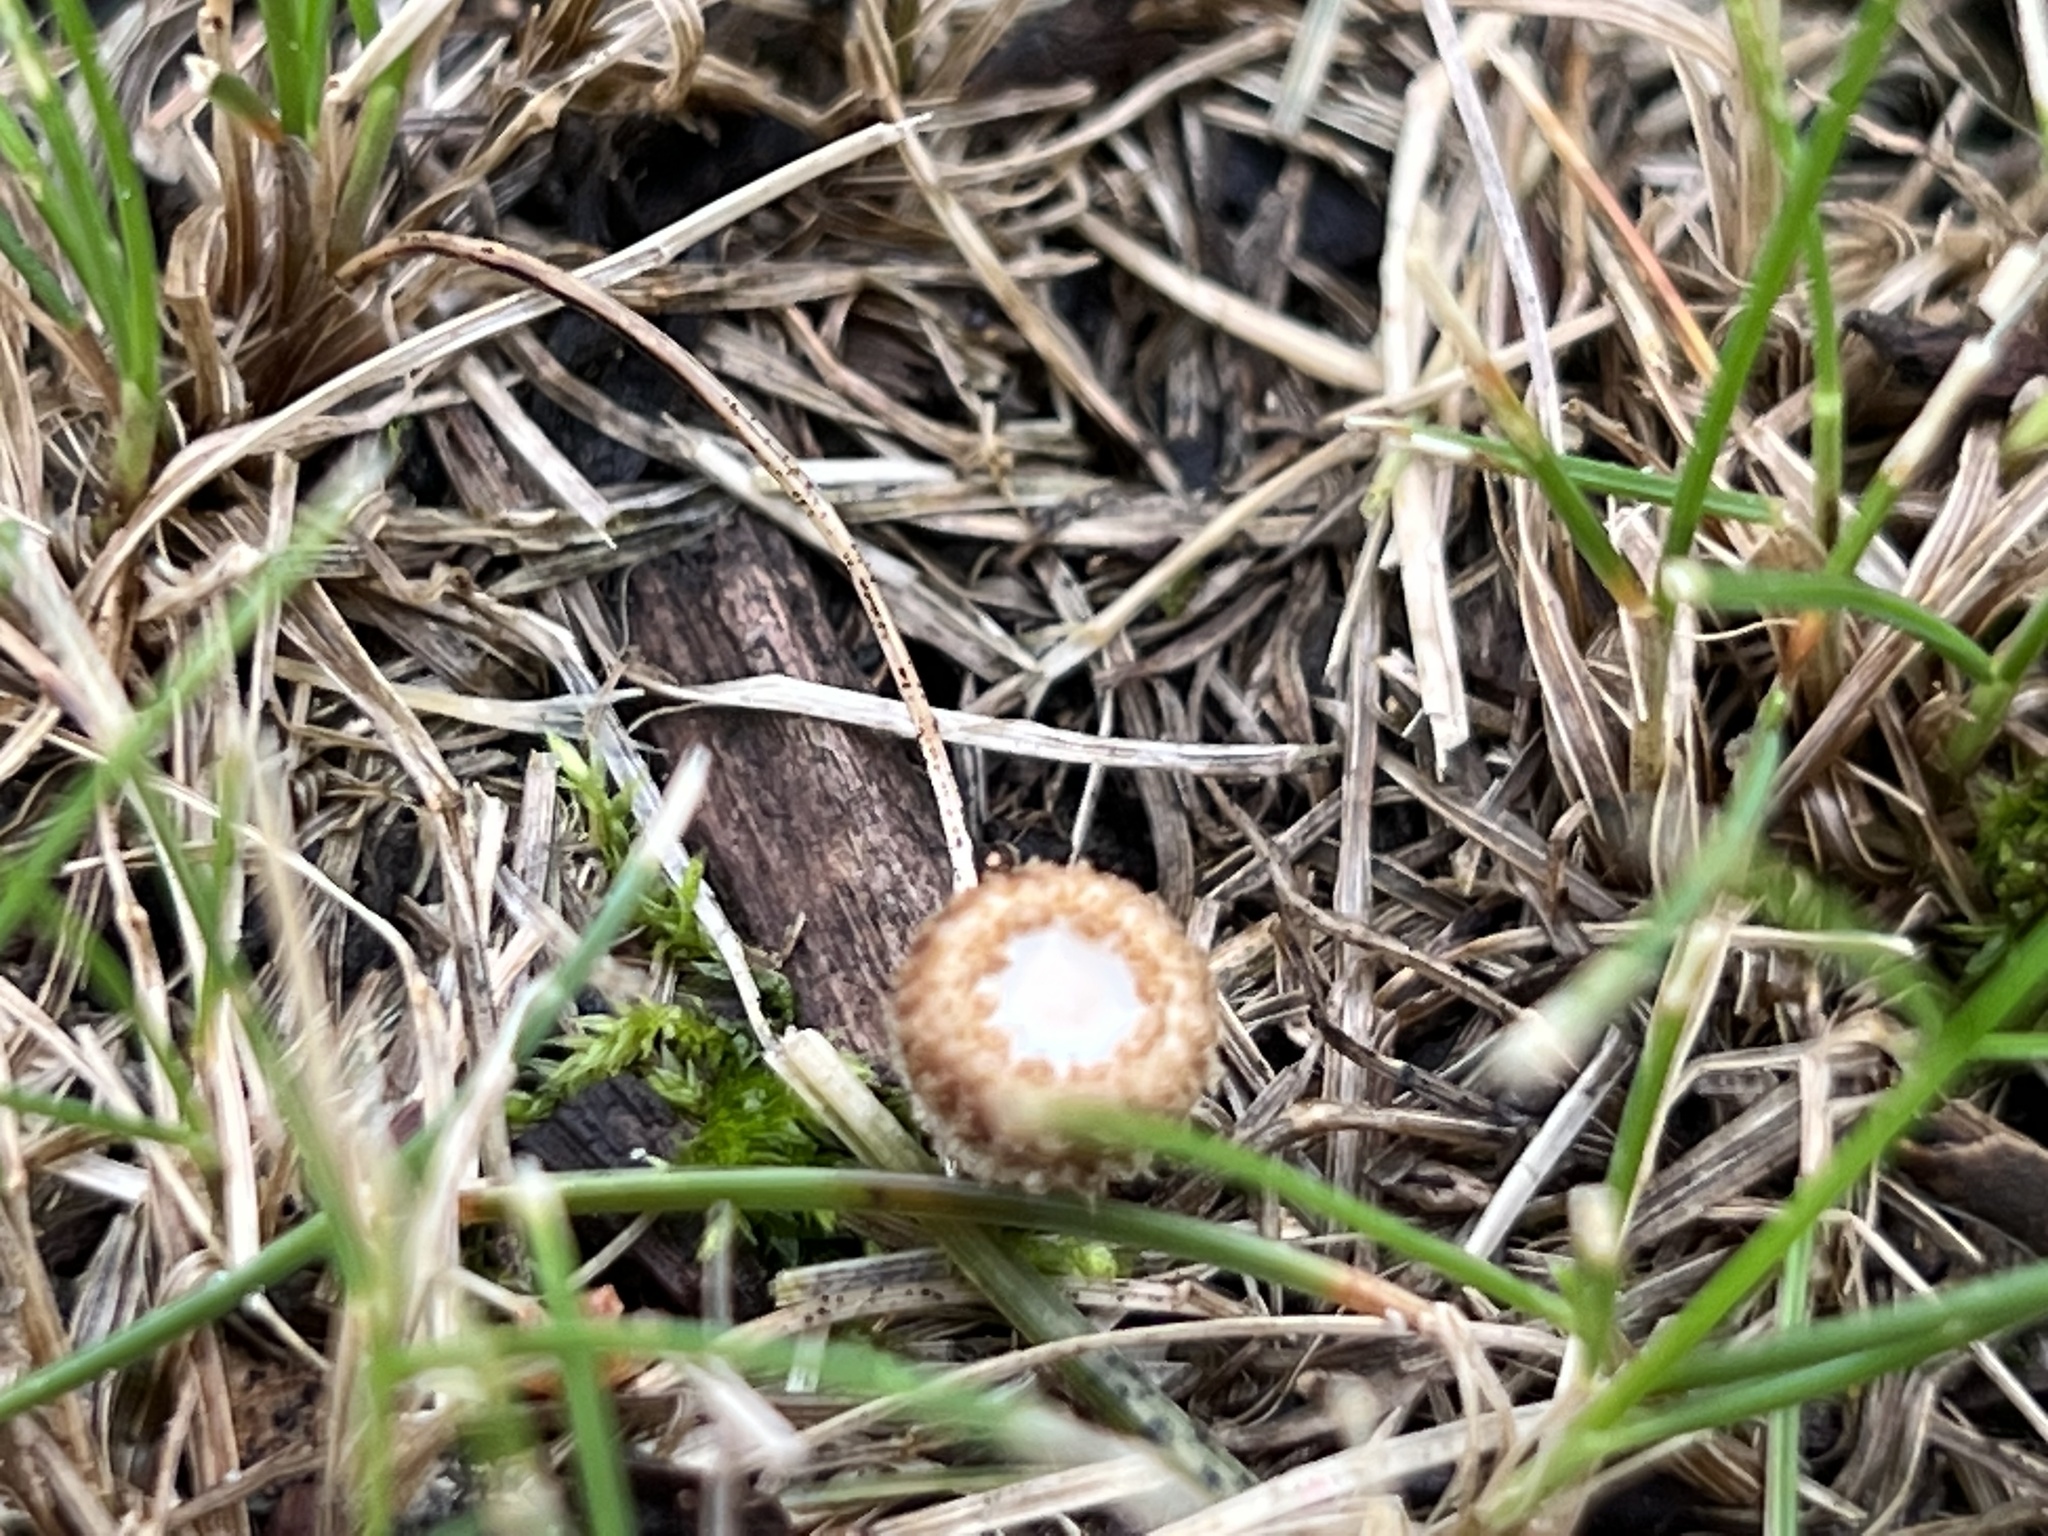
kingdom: Fungi
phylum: Basidiomycota
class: Agaricomycetes
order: Agaricales
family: Agaricaceae
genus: Cyathus
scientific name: Cyathus striatus
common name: Fluted bird's nest
